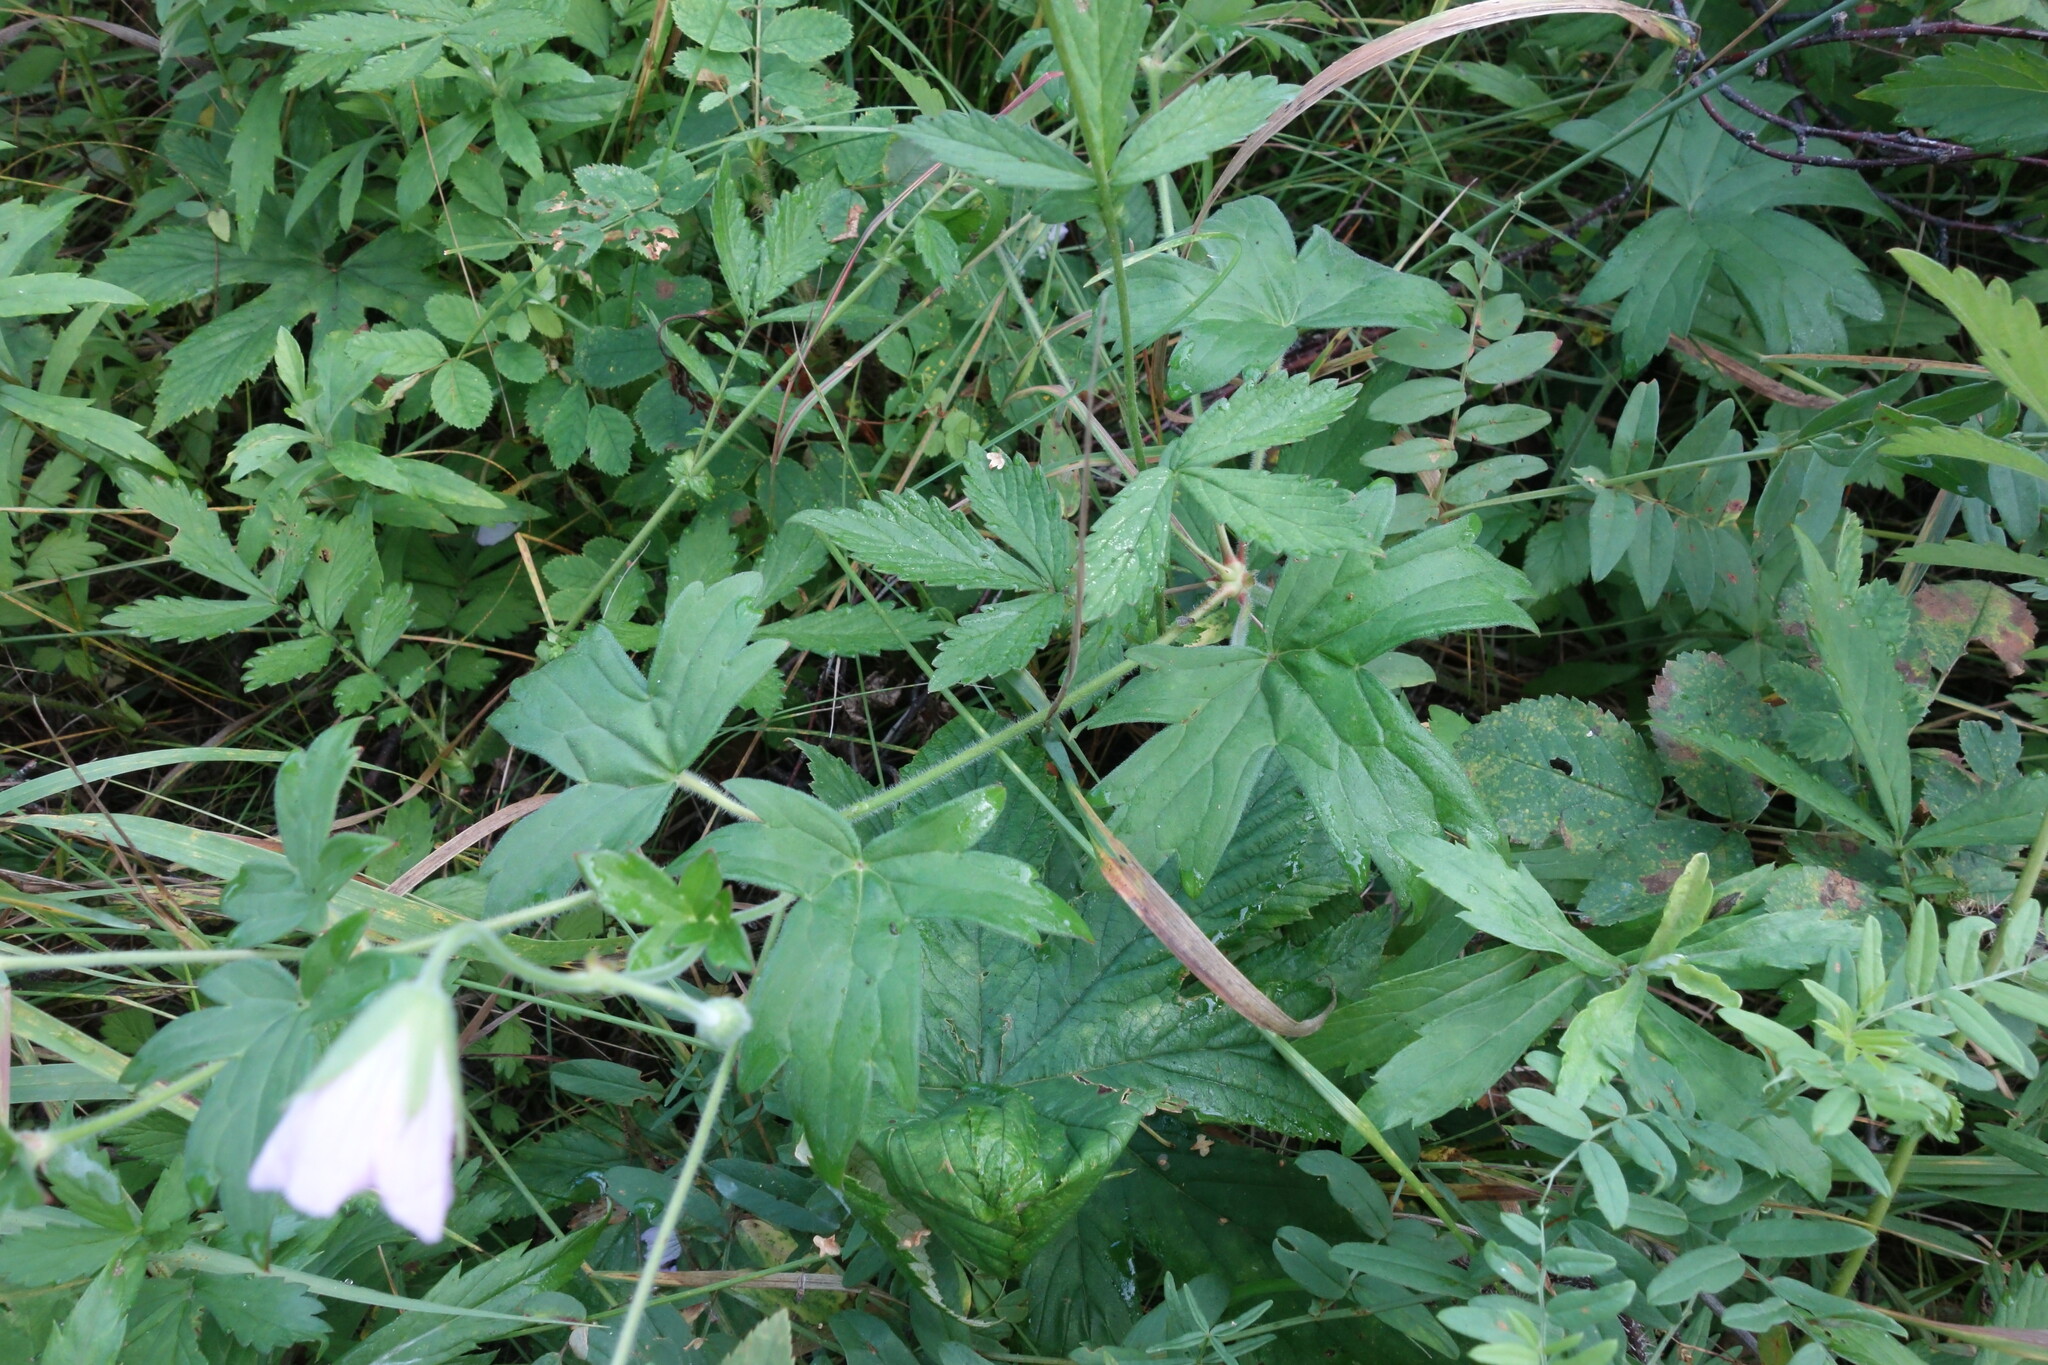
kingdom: Plantae
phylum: Tracheophyta
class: Magnoliopsida
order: Geraniales
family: Geraniaceae
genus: Geranium
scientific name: Geranium wlassovianum
